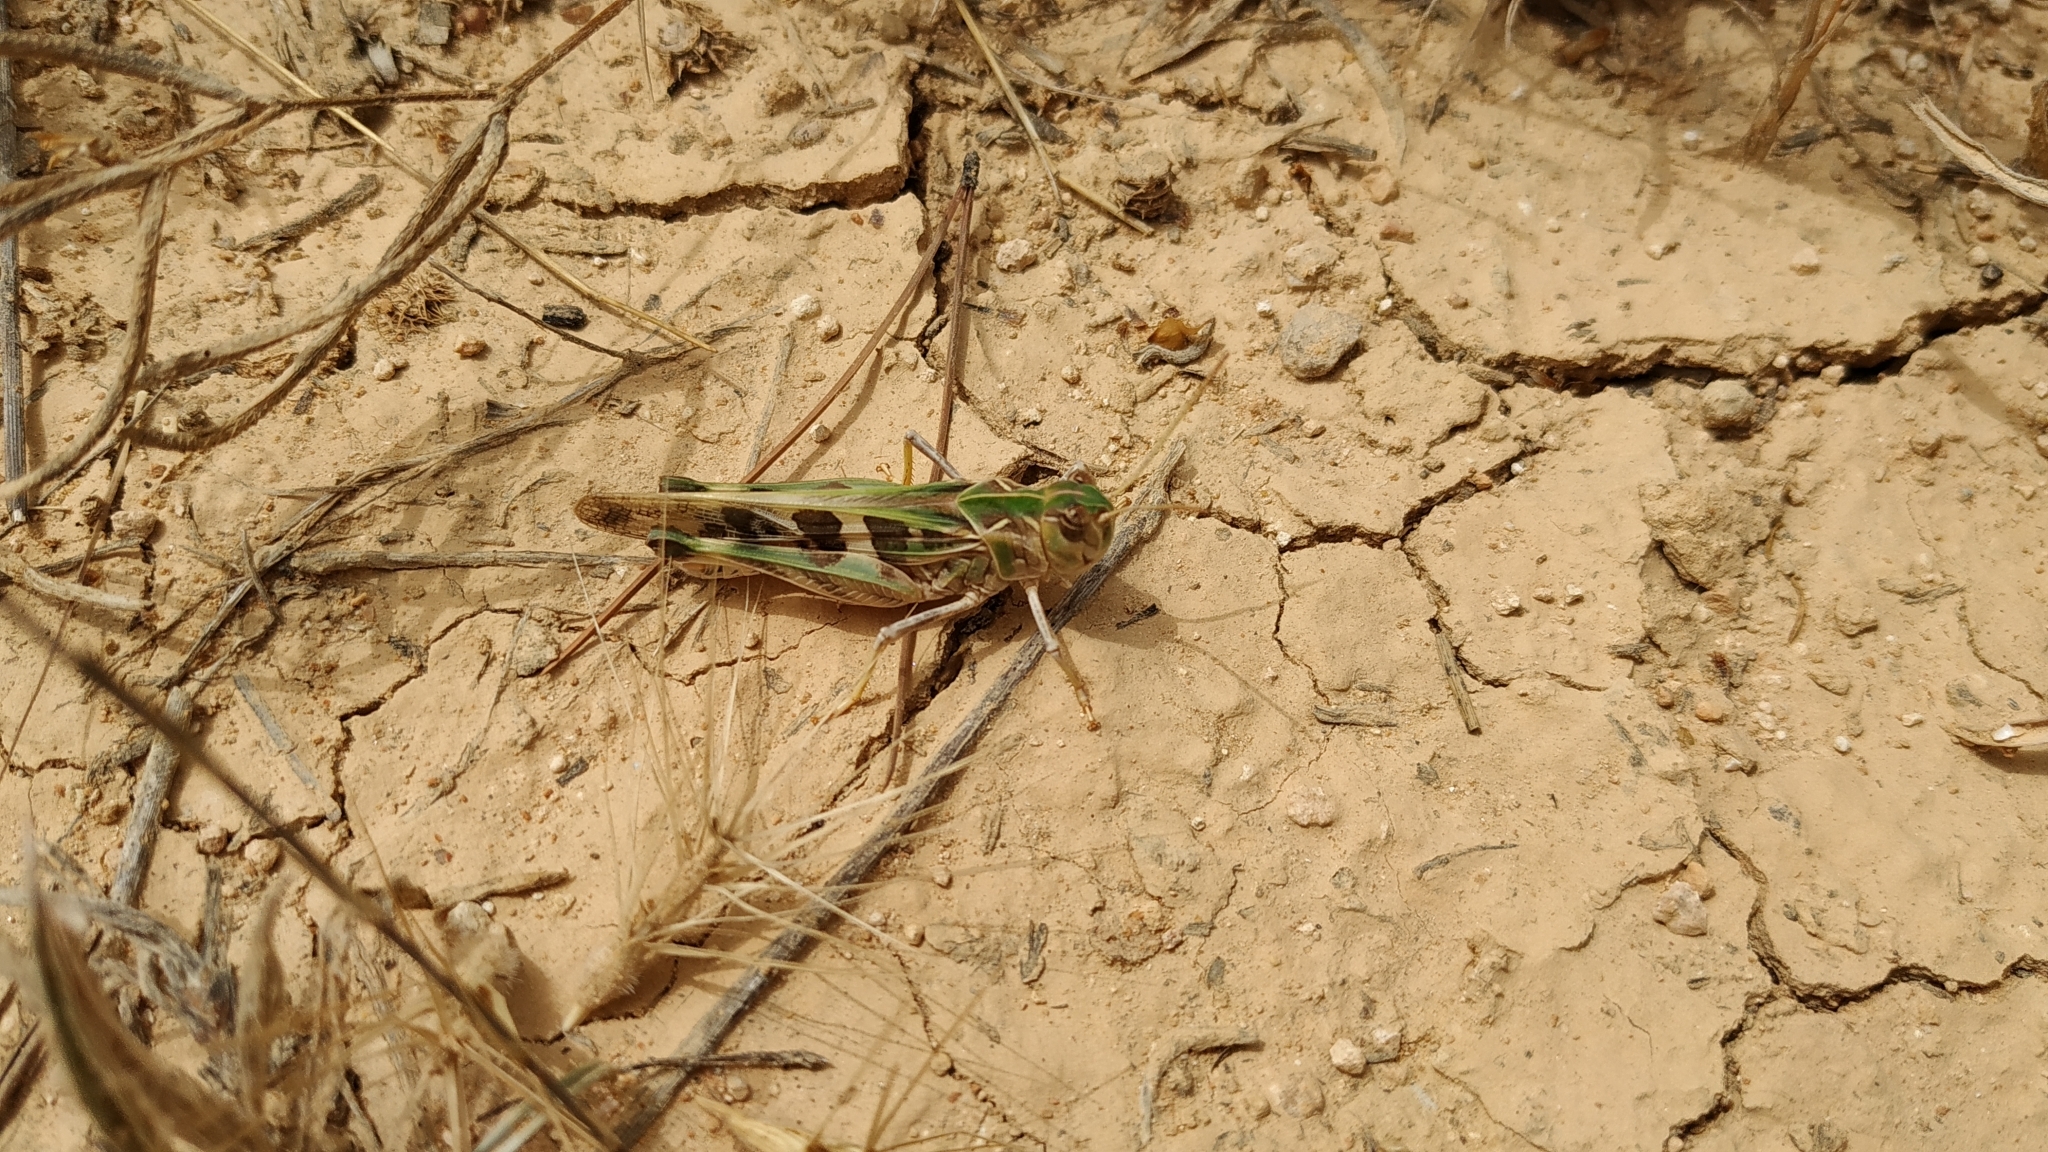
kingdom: Animalia
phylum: Arthropoda
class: Insecta
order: Orthoptera
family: Acrididae
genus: Oedaleus
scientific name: Oedaleus decorus
